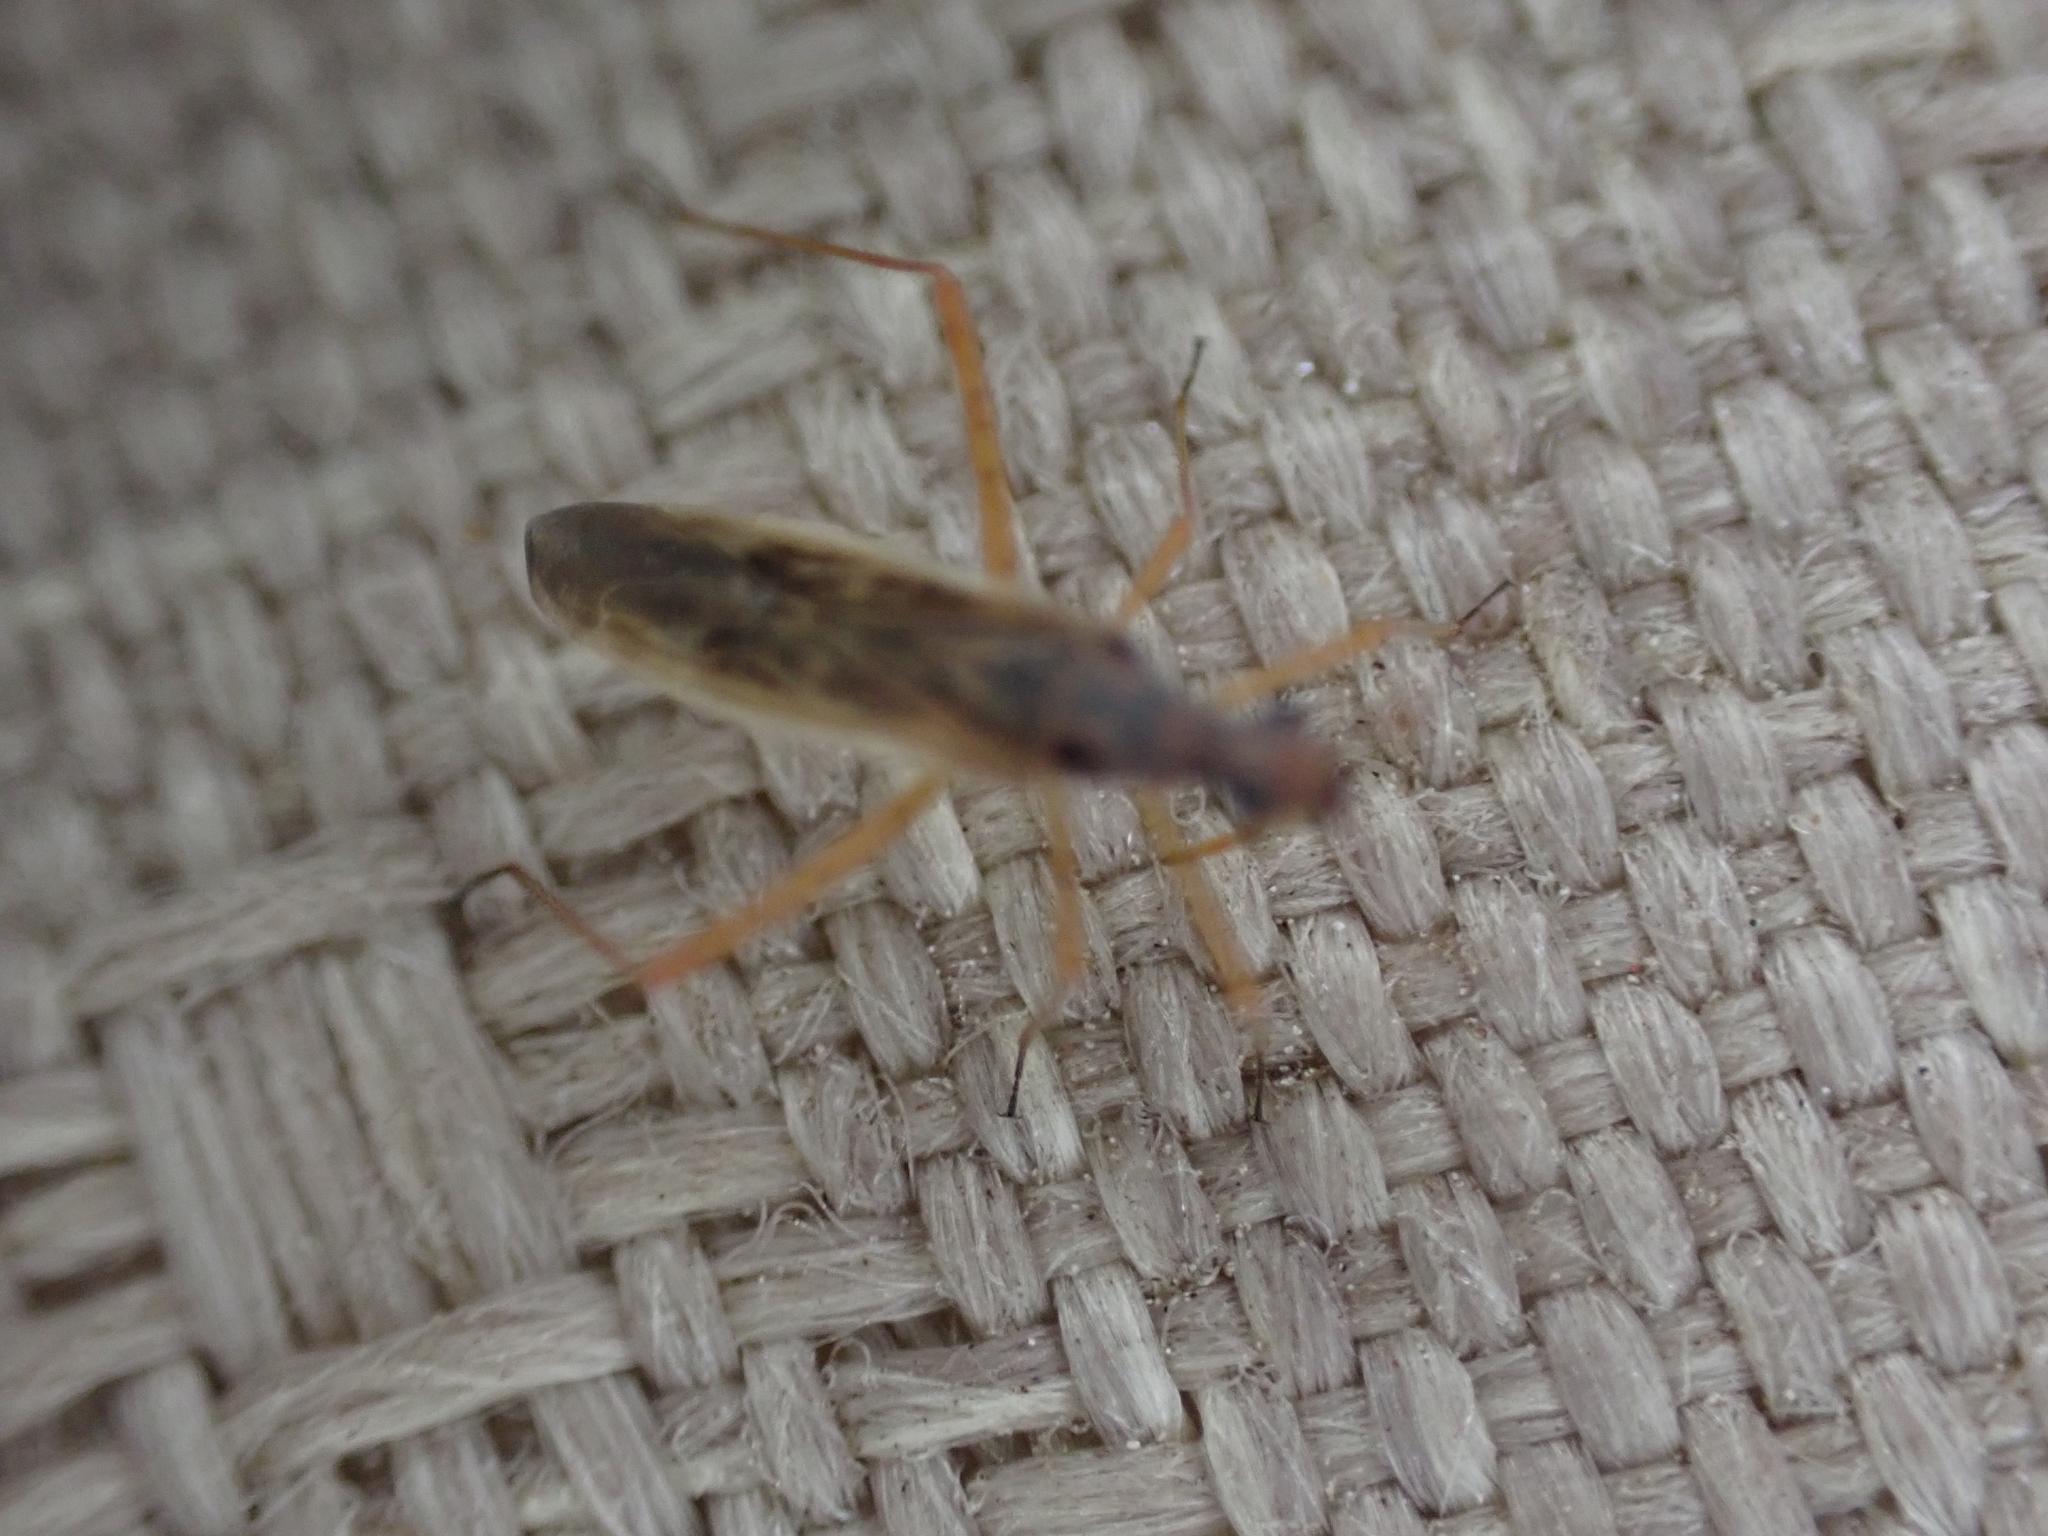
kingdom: Animalia
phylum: Arthropoda
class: Insecta
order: Hemiptera
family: Miridae
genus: Collaria
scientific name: Collaria oculata
